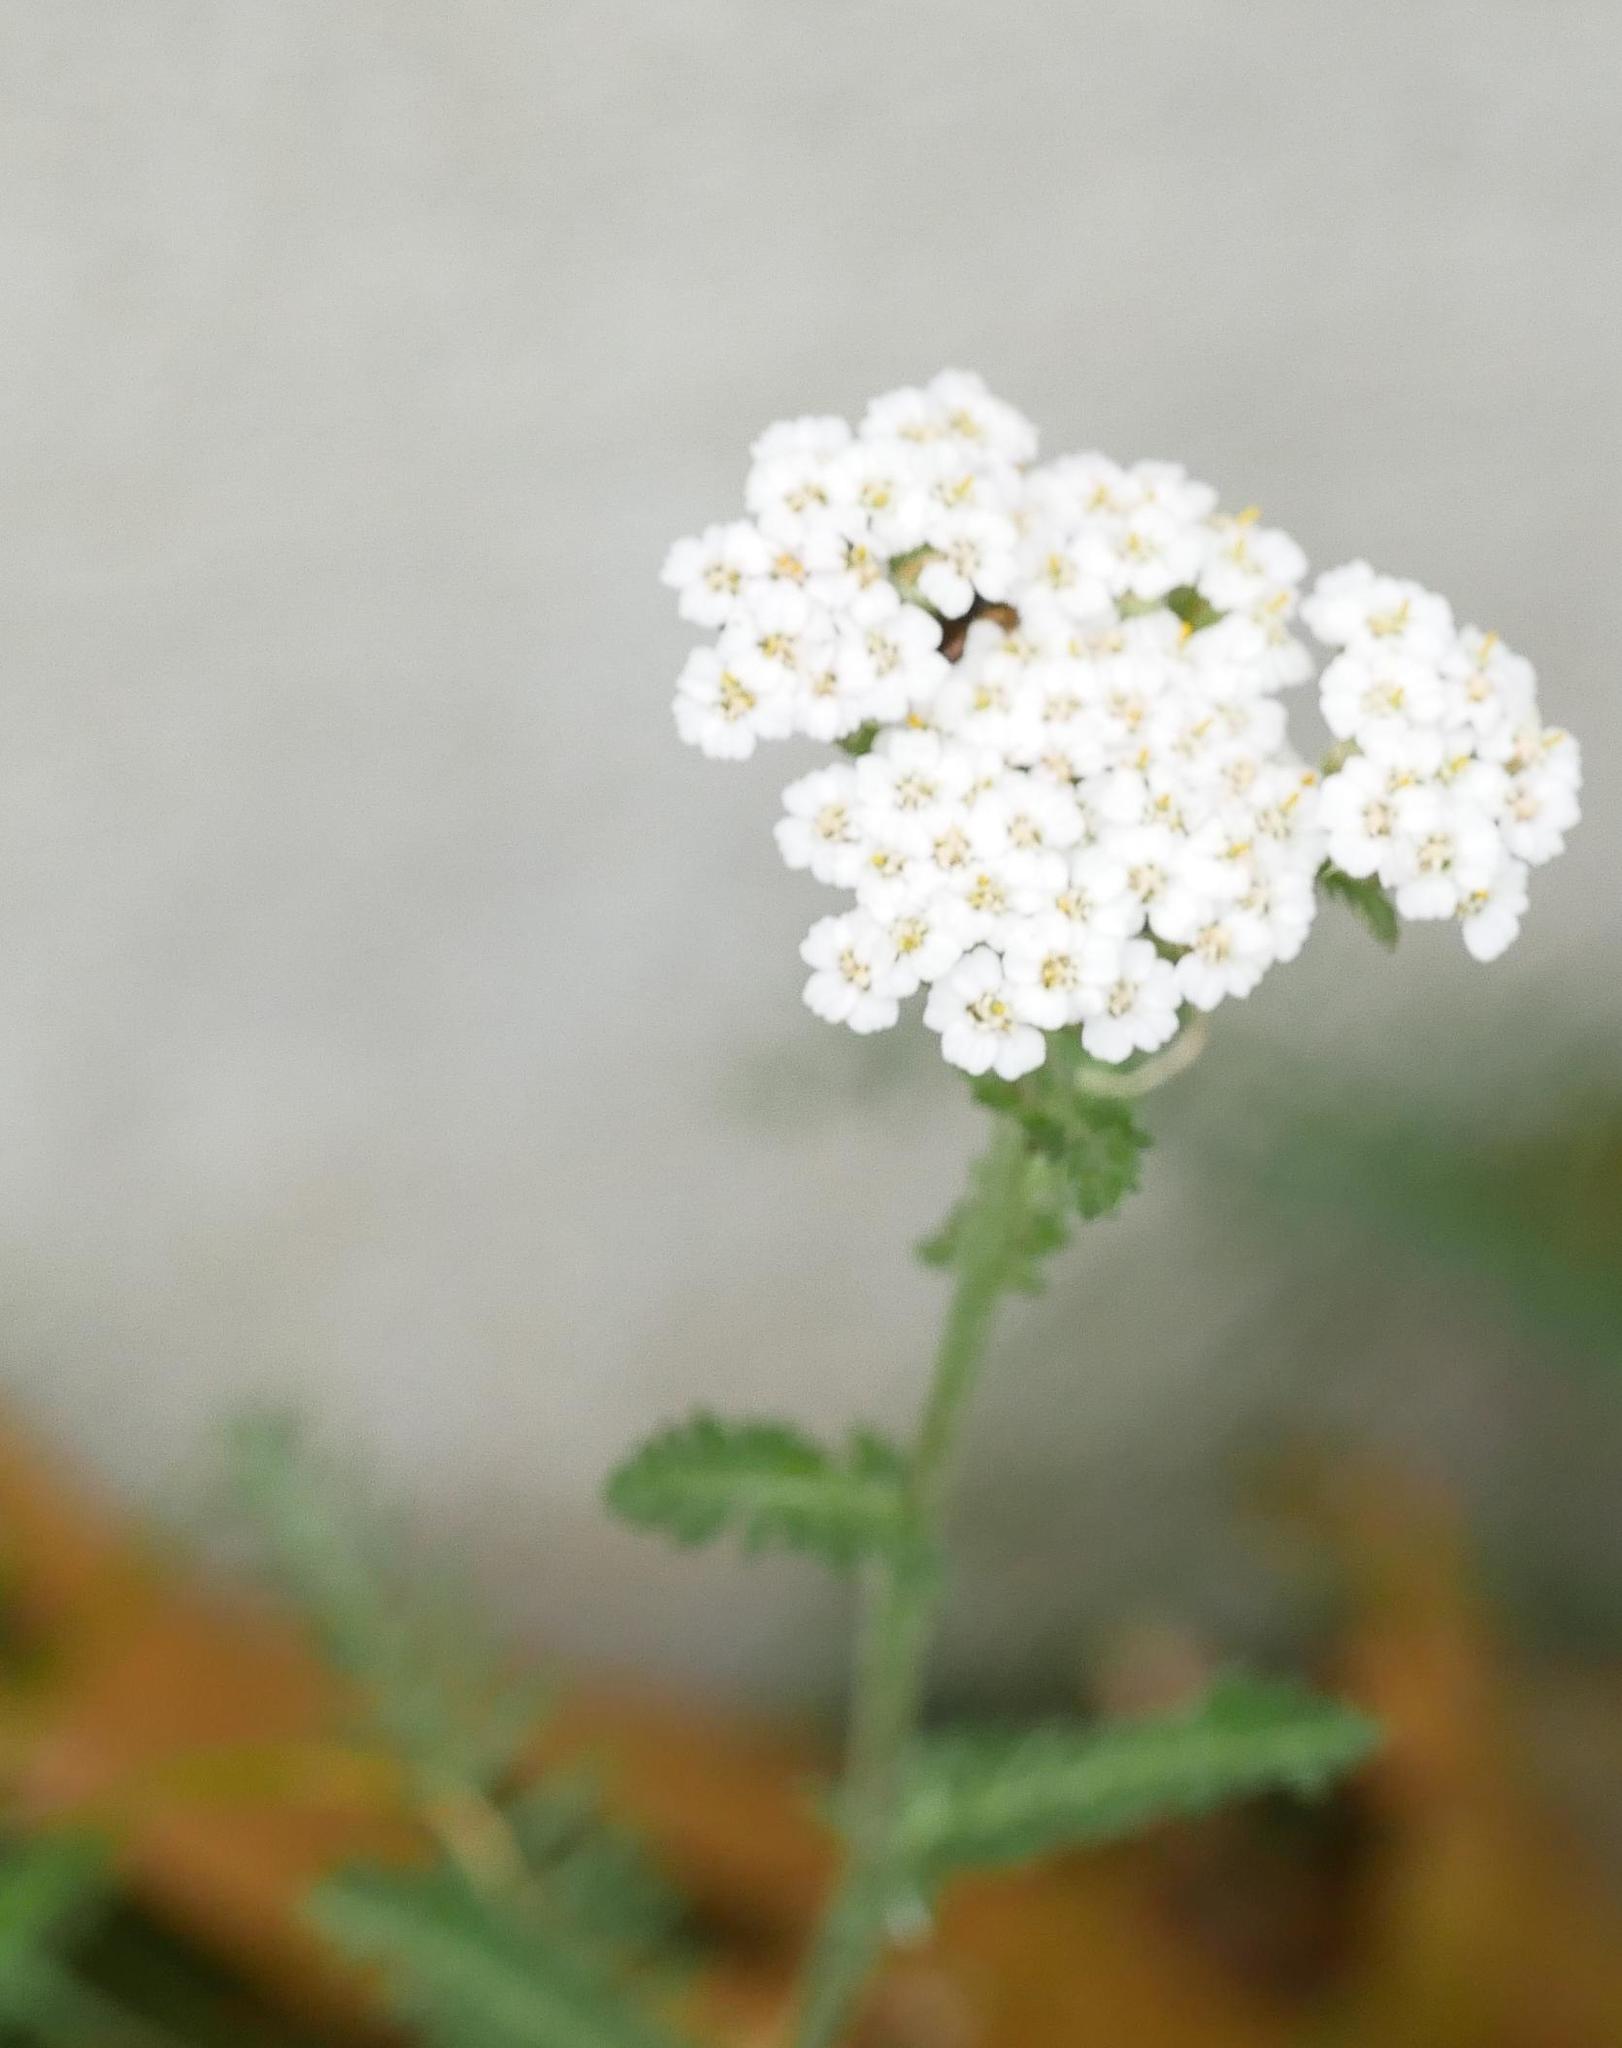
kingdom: Plantae
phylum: Tracheophyta
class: Magnoliopsida
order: Asterales
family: Asteraceae
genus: Achillea
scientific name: Achillea millefolium
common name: Yarrow
